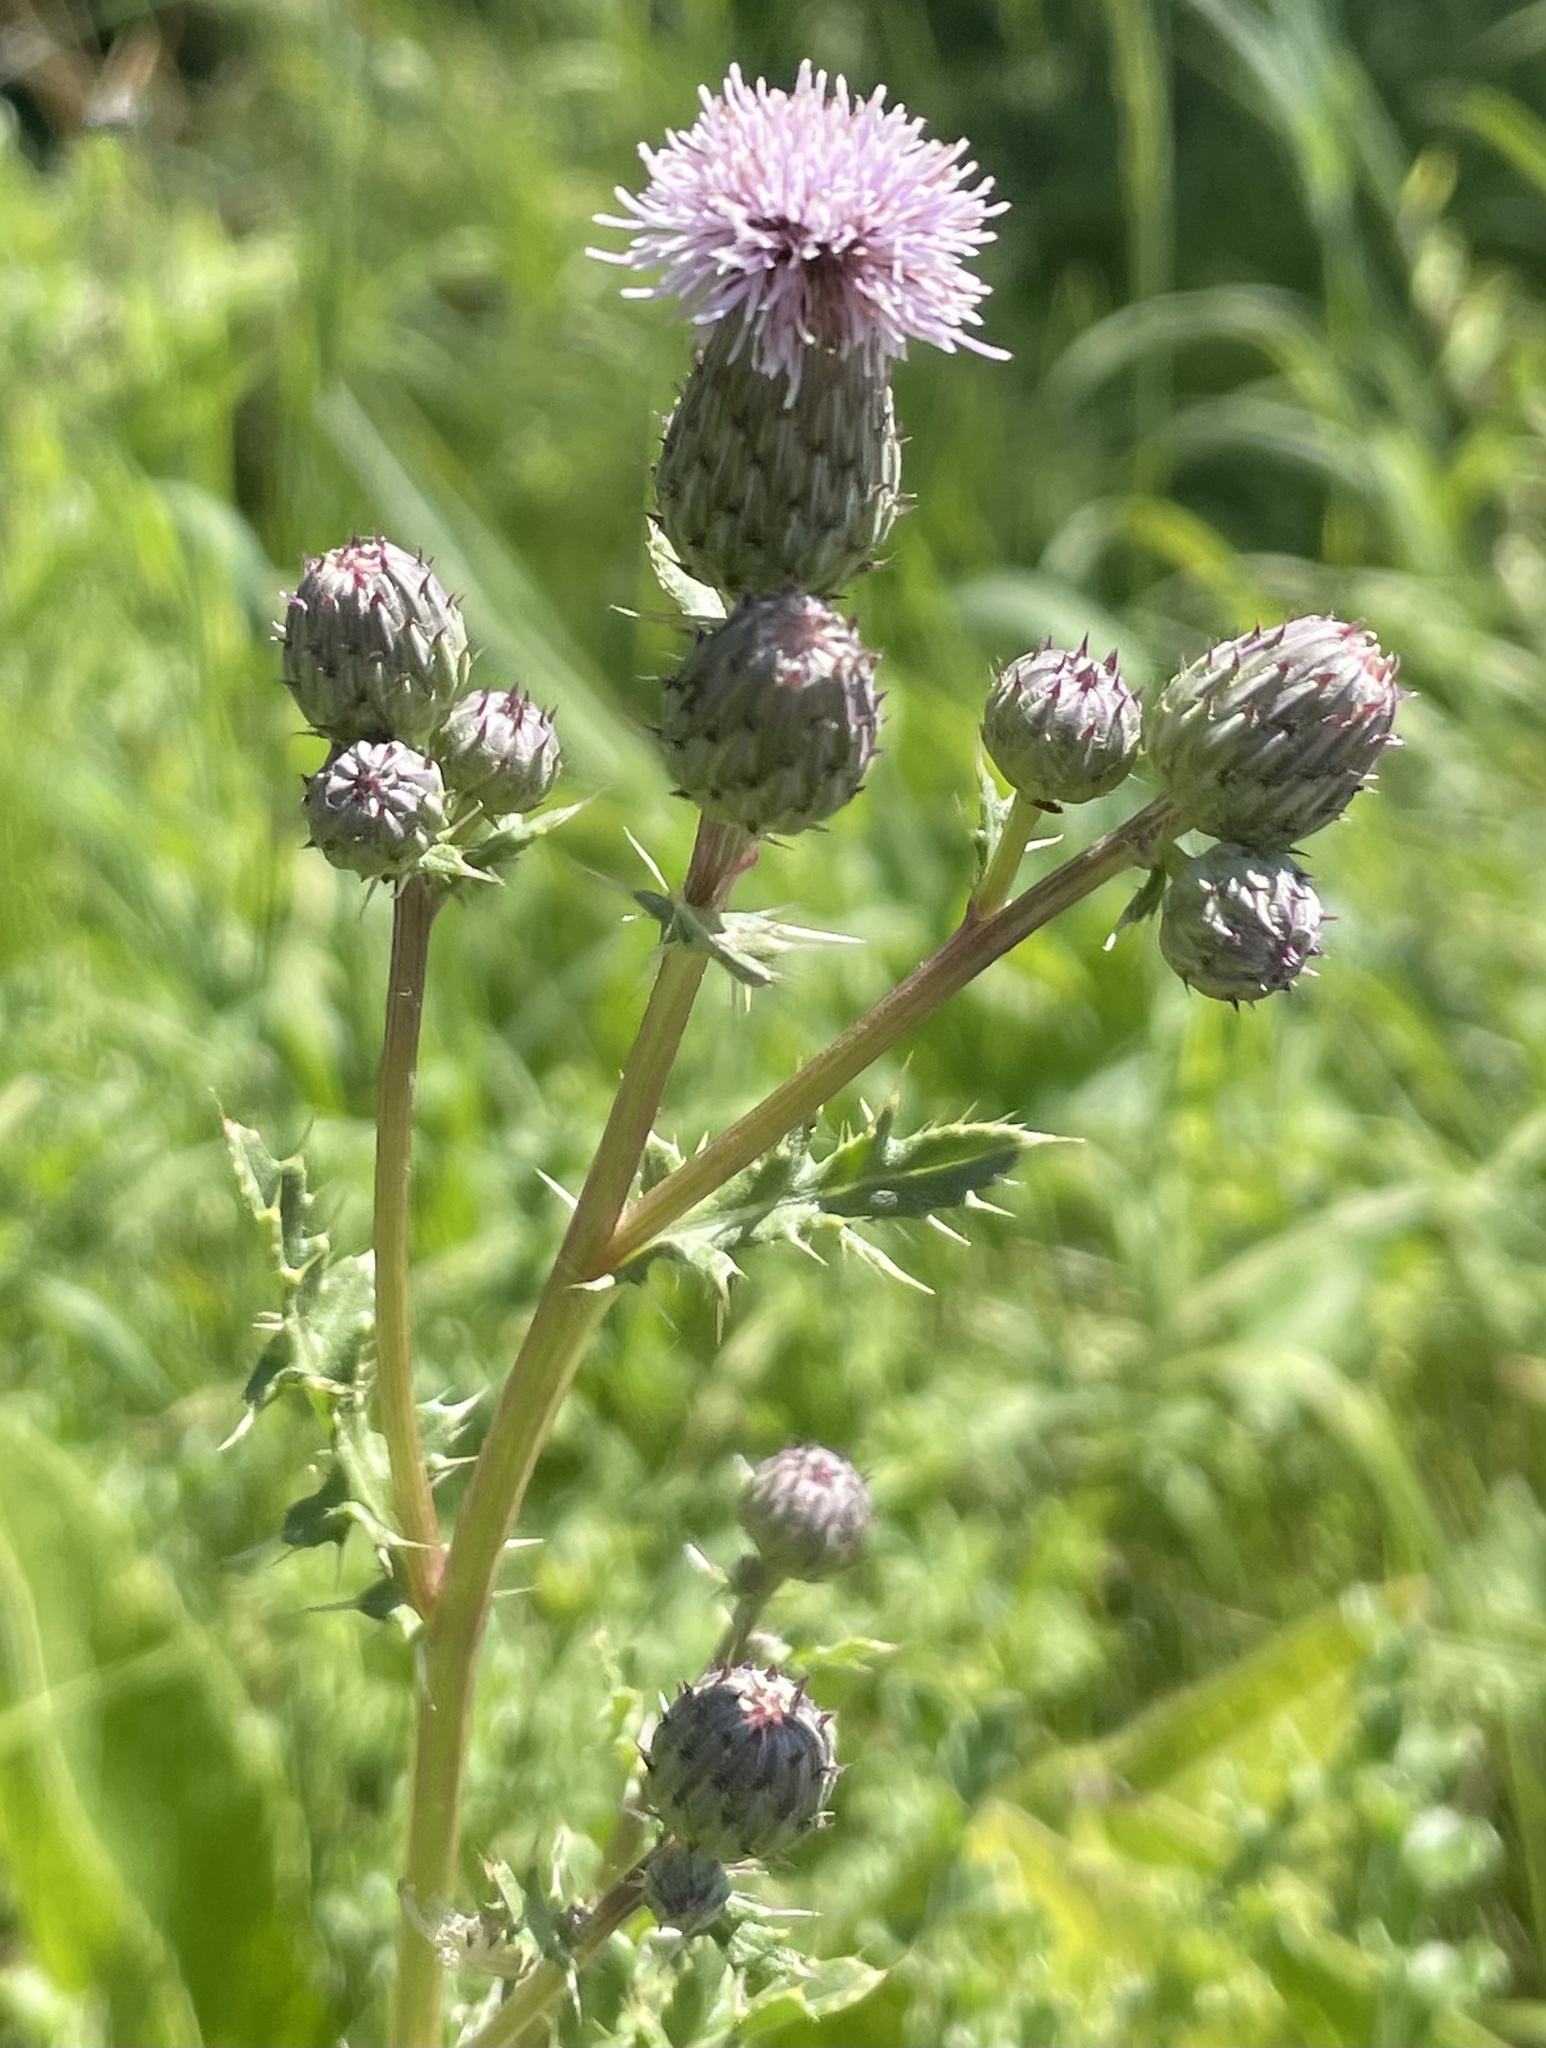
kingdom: Plantae
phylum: Tracheophyta
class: Magnoliopsida
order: Asterales
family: Asteraceae
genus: Cirsium
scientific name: Cirsium arvense
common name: Creeping thistle
